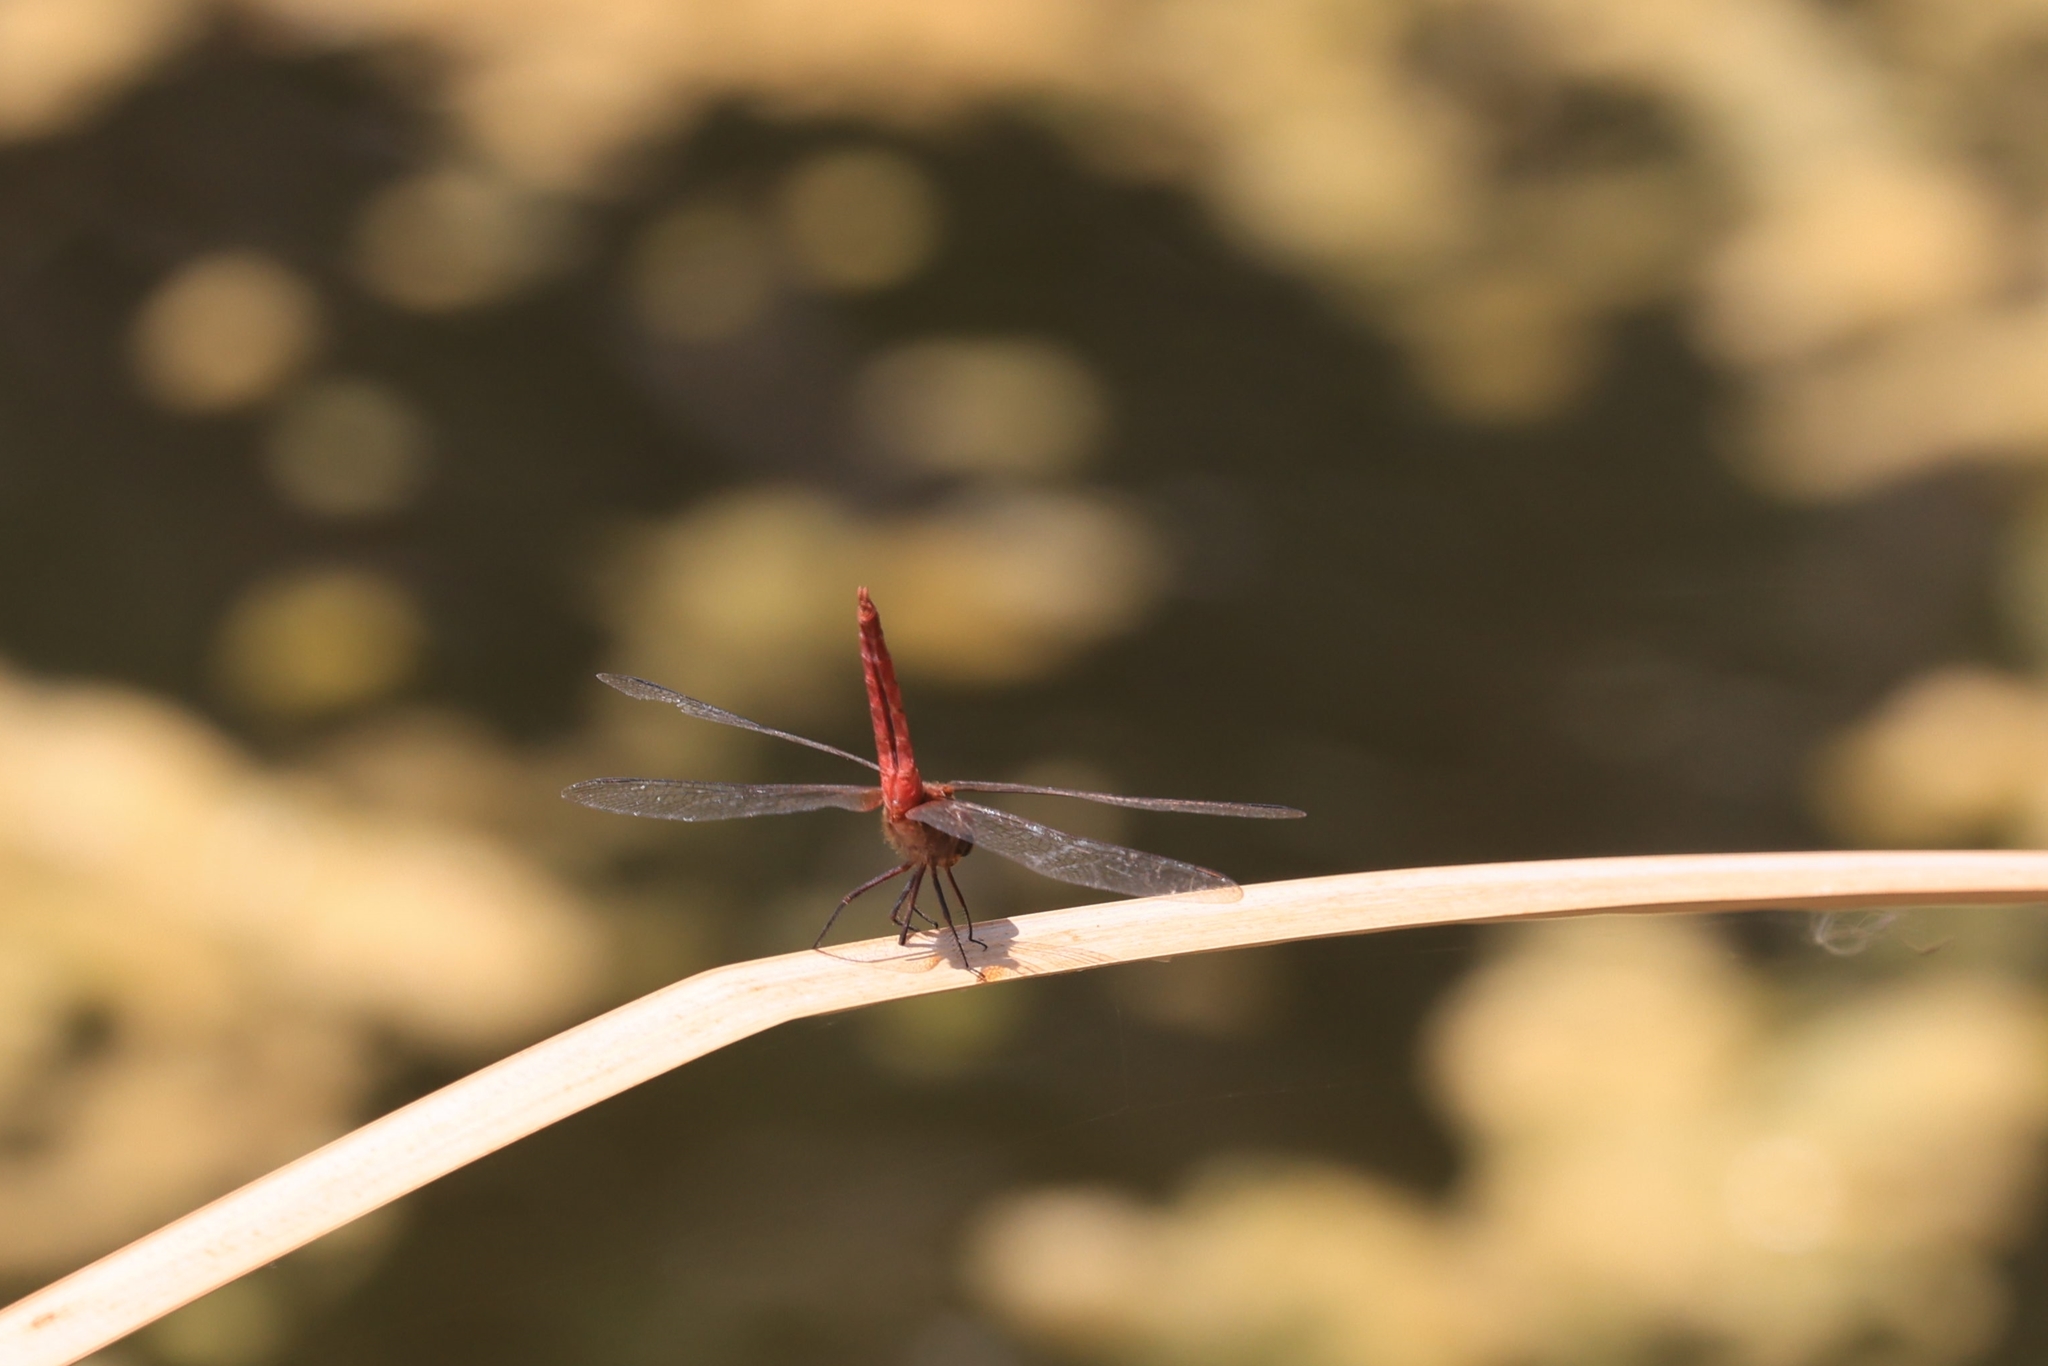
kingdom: Animalia
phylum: Arthropoda
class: Insecta
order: Odonata
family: Libellulidae
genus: Brachymesia
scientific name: Brachymesia furcata
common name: Red-taled pennant
